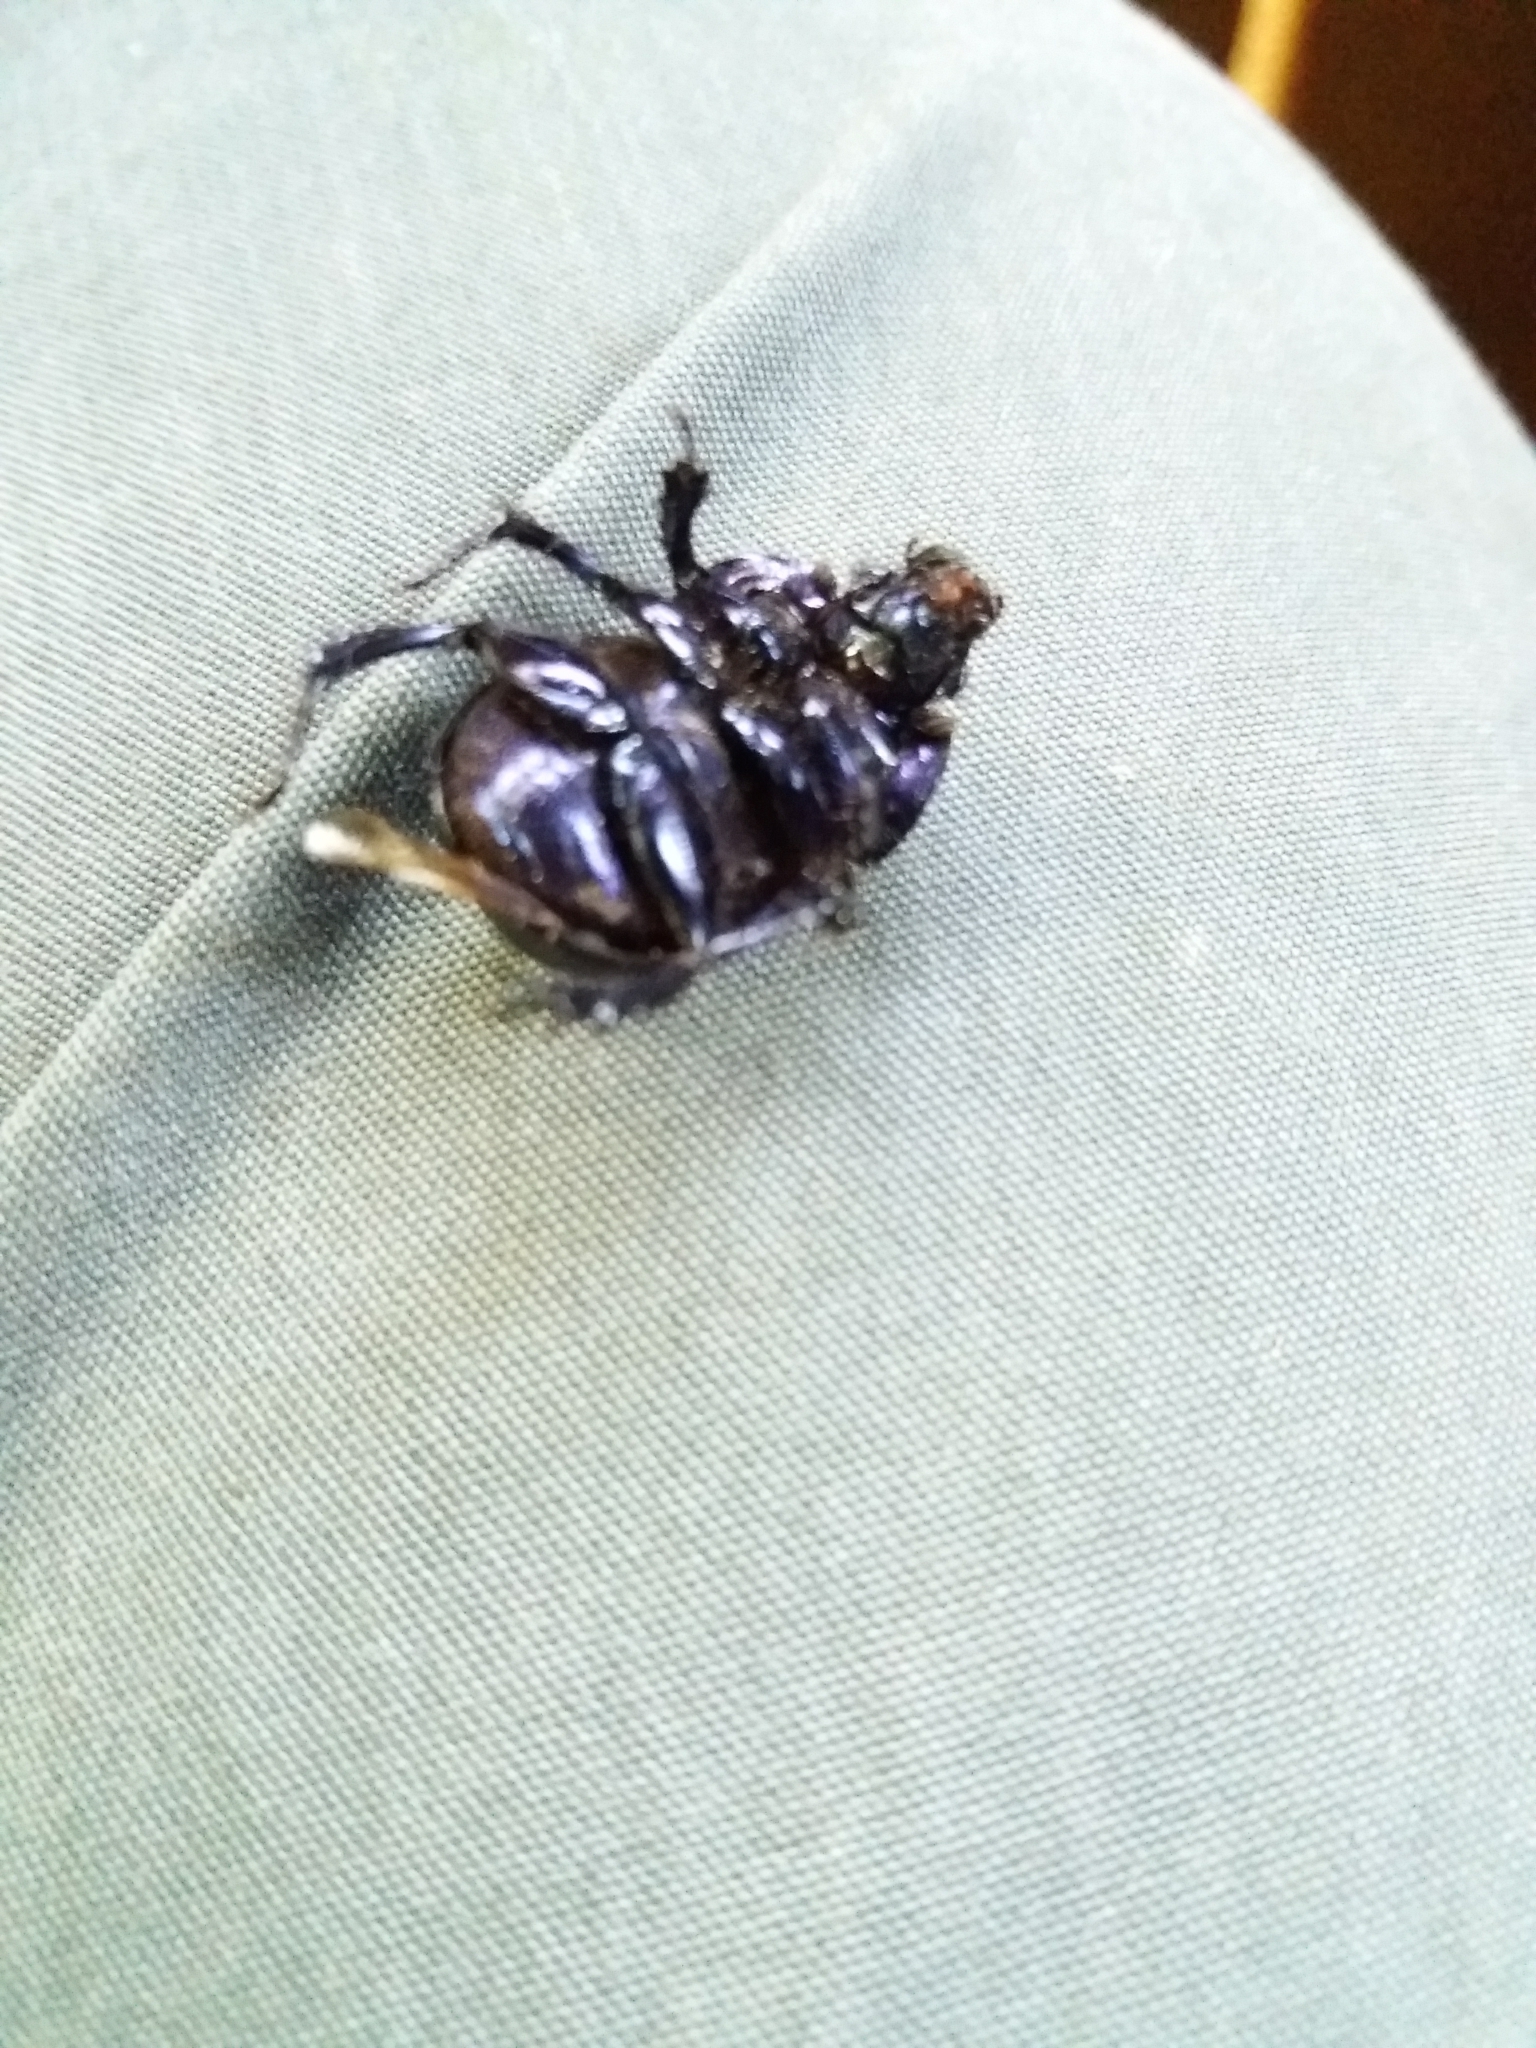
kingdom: Animalia
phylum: Arthropoda
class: Insecta
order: Coleoptera
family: Geotrupidae
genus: Anoplotrupes
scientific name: Anoplotrupes stercorosus
